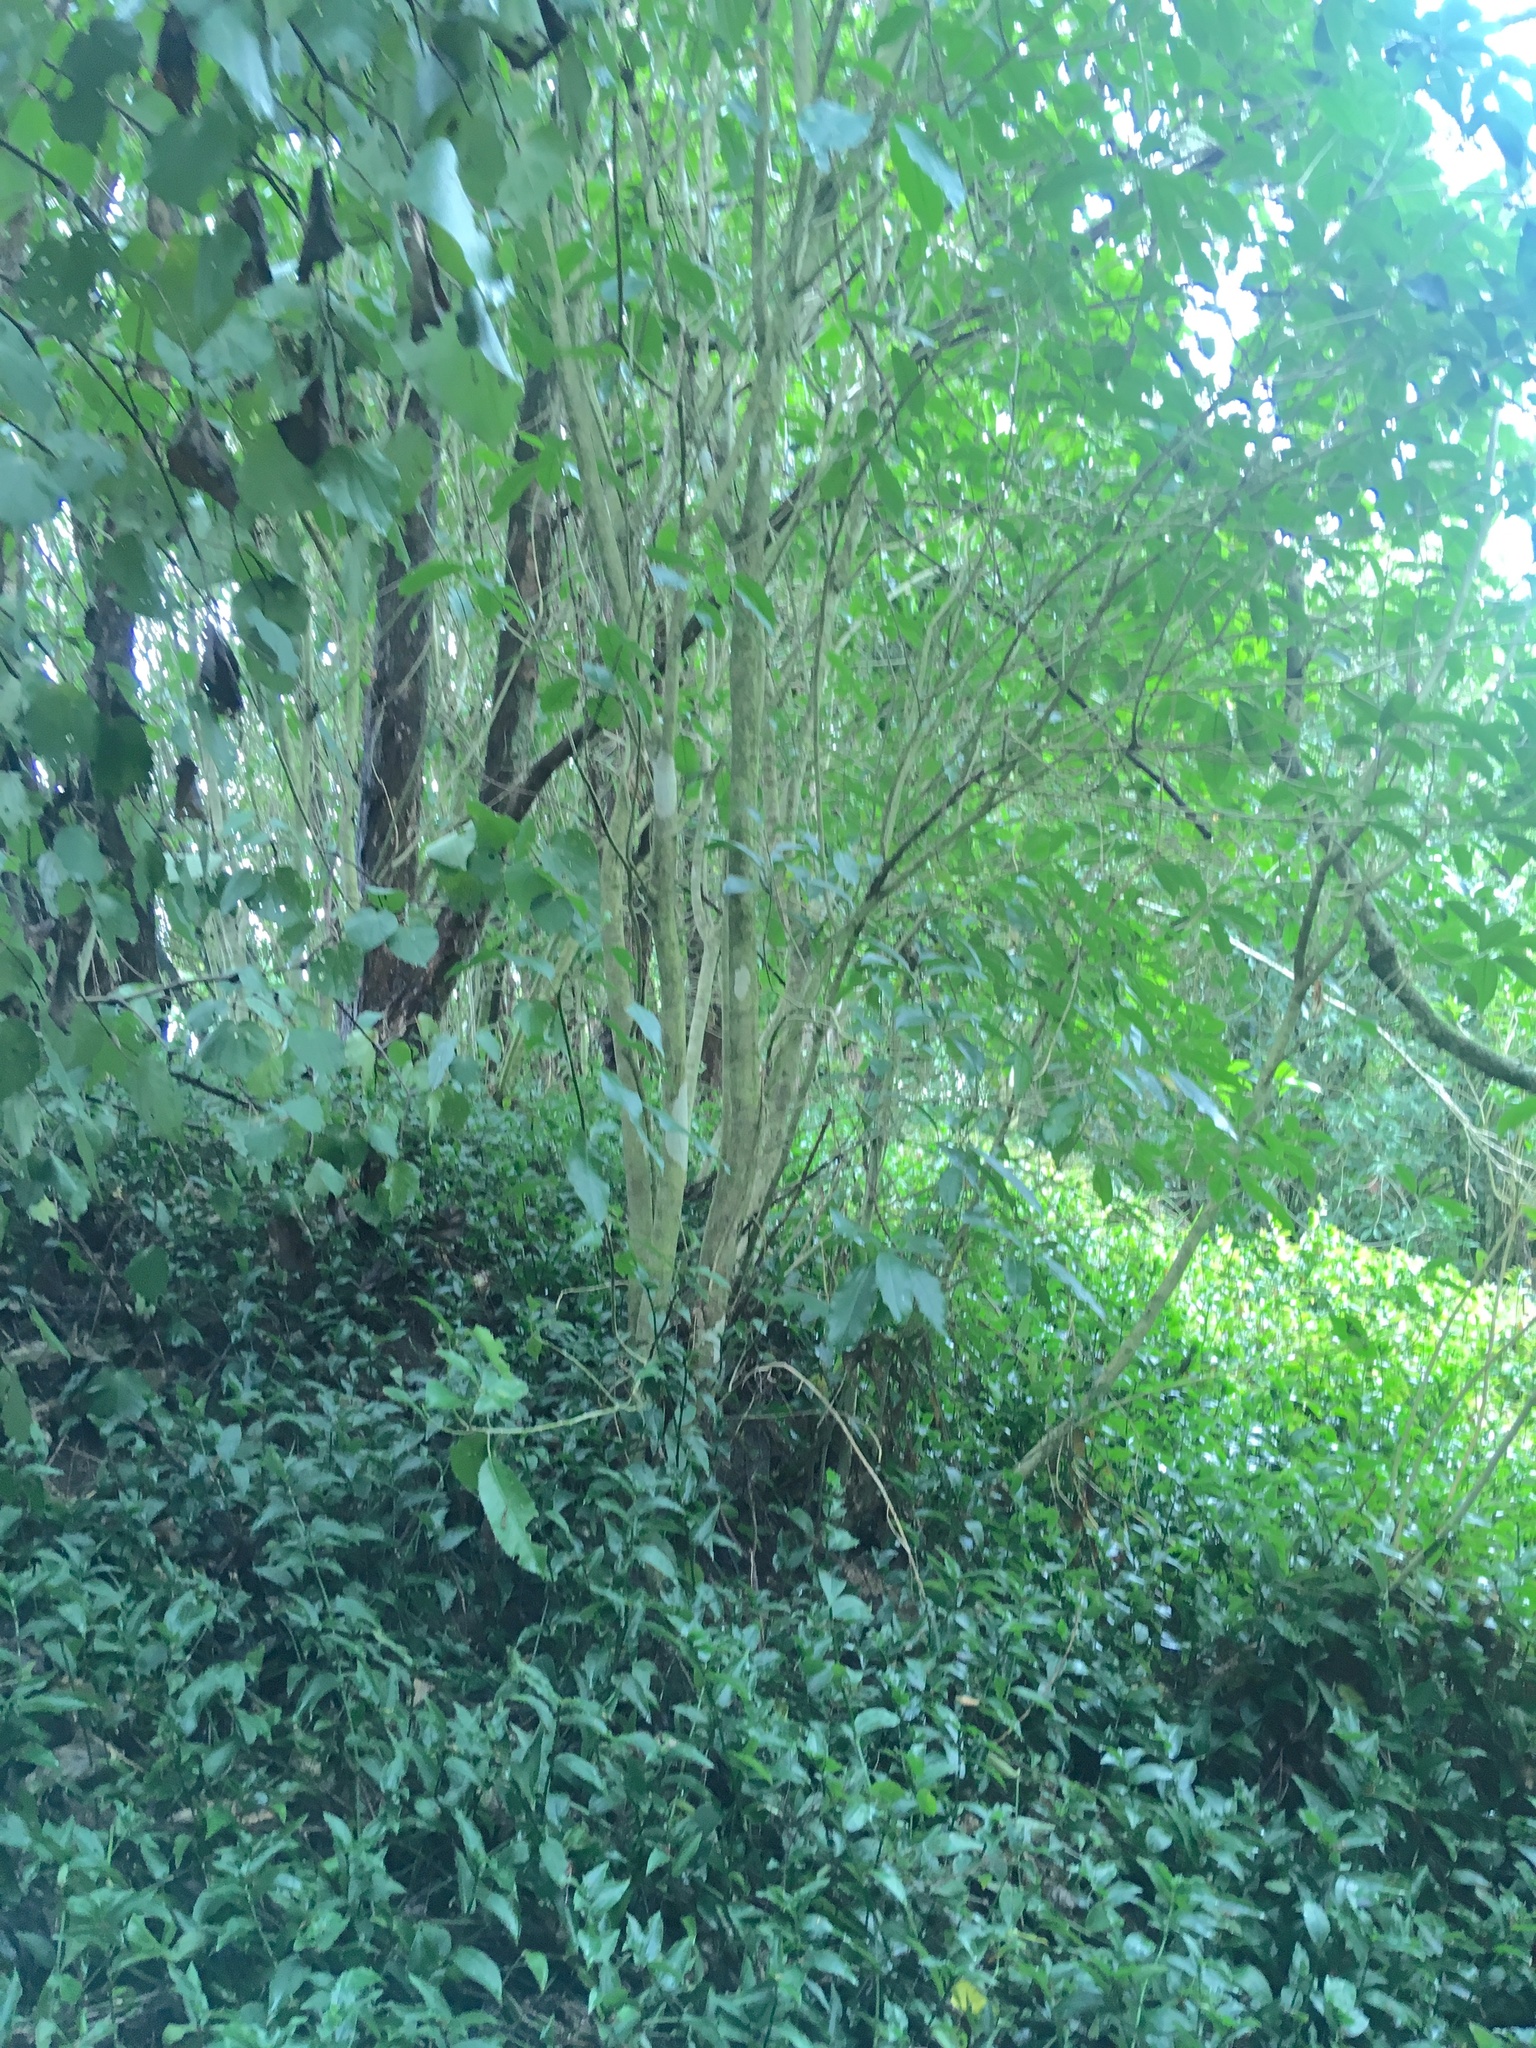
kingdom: Plantae
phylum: Tracheophyta
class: Magnoliopsida
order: Piperales
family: Piperaceae
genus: Macropiper
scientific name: Macropiper excelsum
